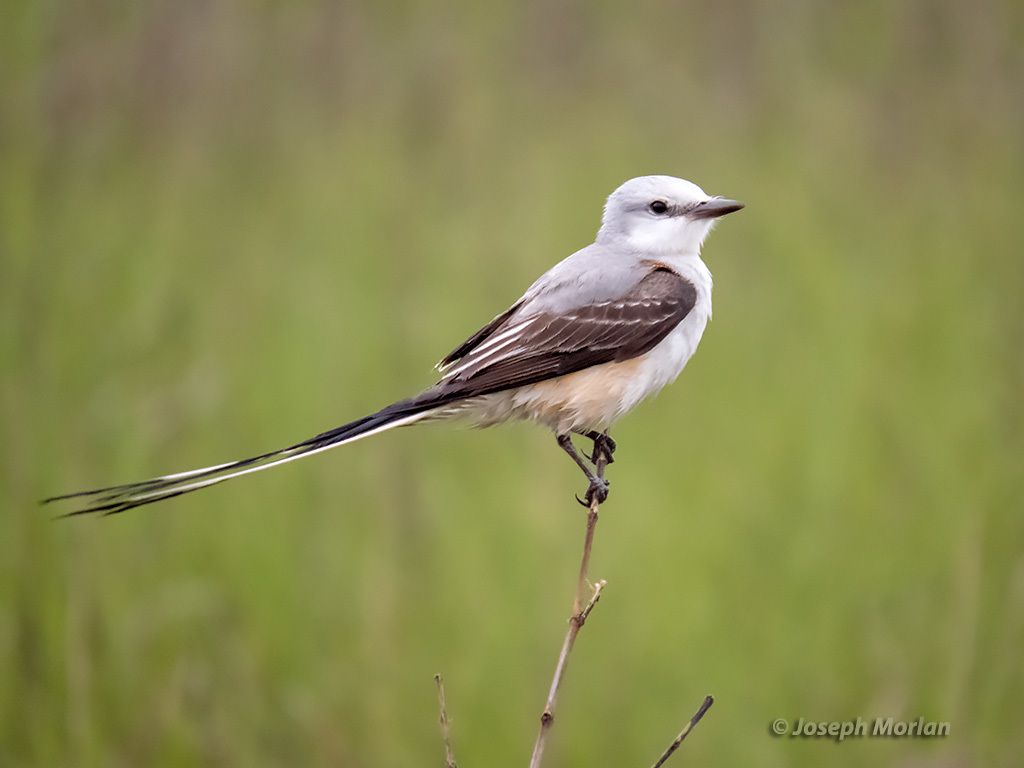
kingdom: Animalia
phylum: Chordata
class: Aves
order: Passeriformes
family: Tyrannidae
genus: Tyrannus
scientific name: Tyrannus forficatus
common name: Scissor-tailed flycatcher
